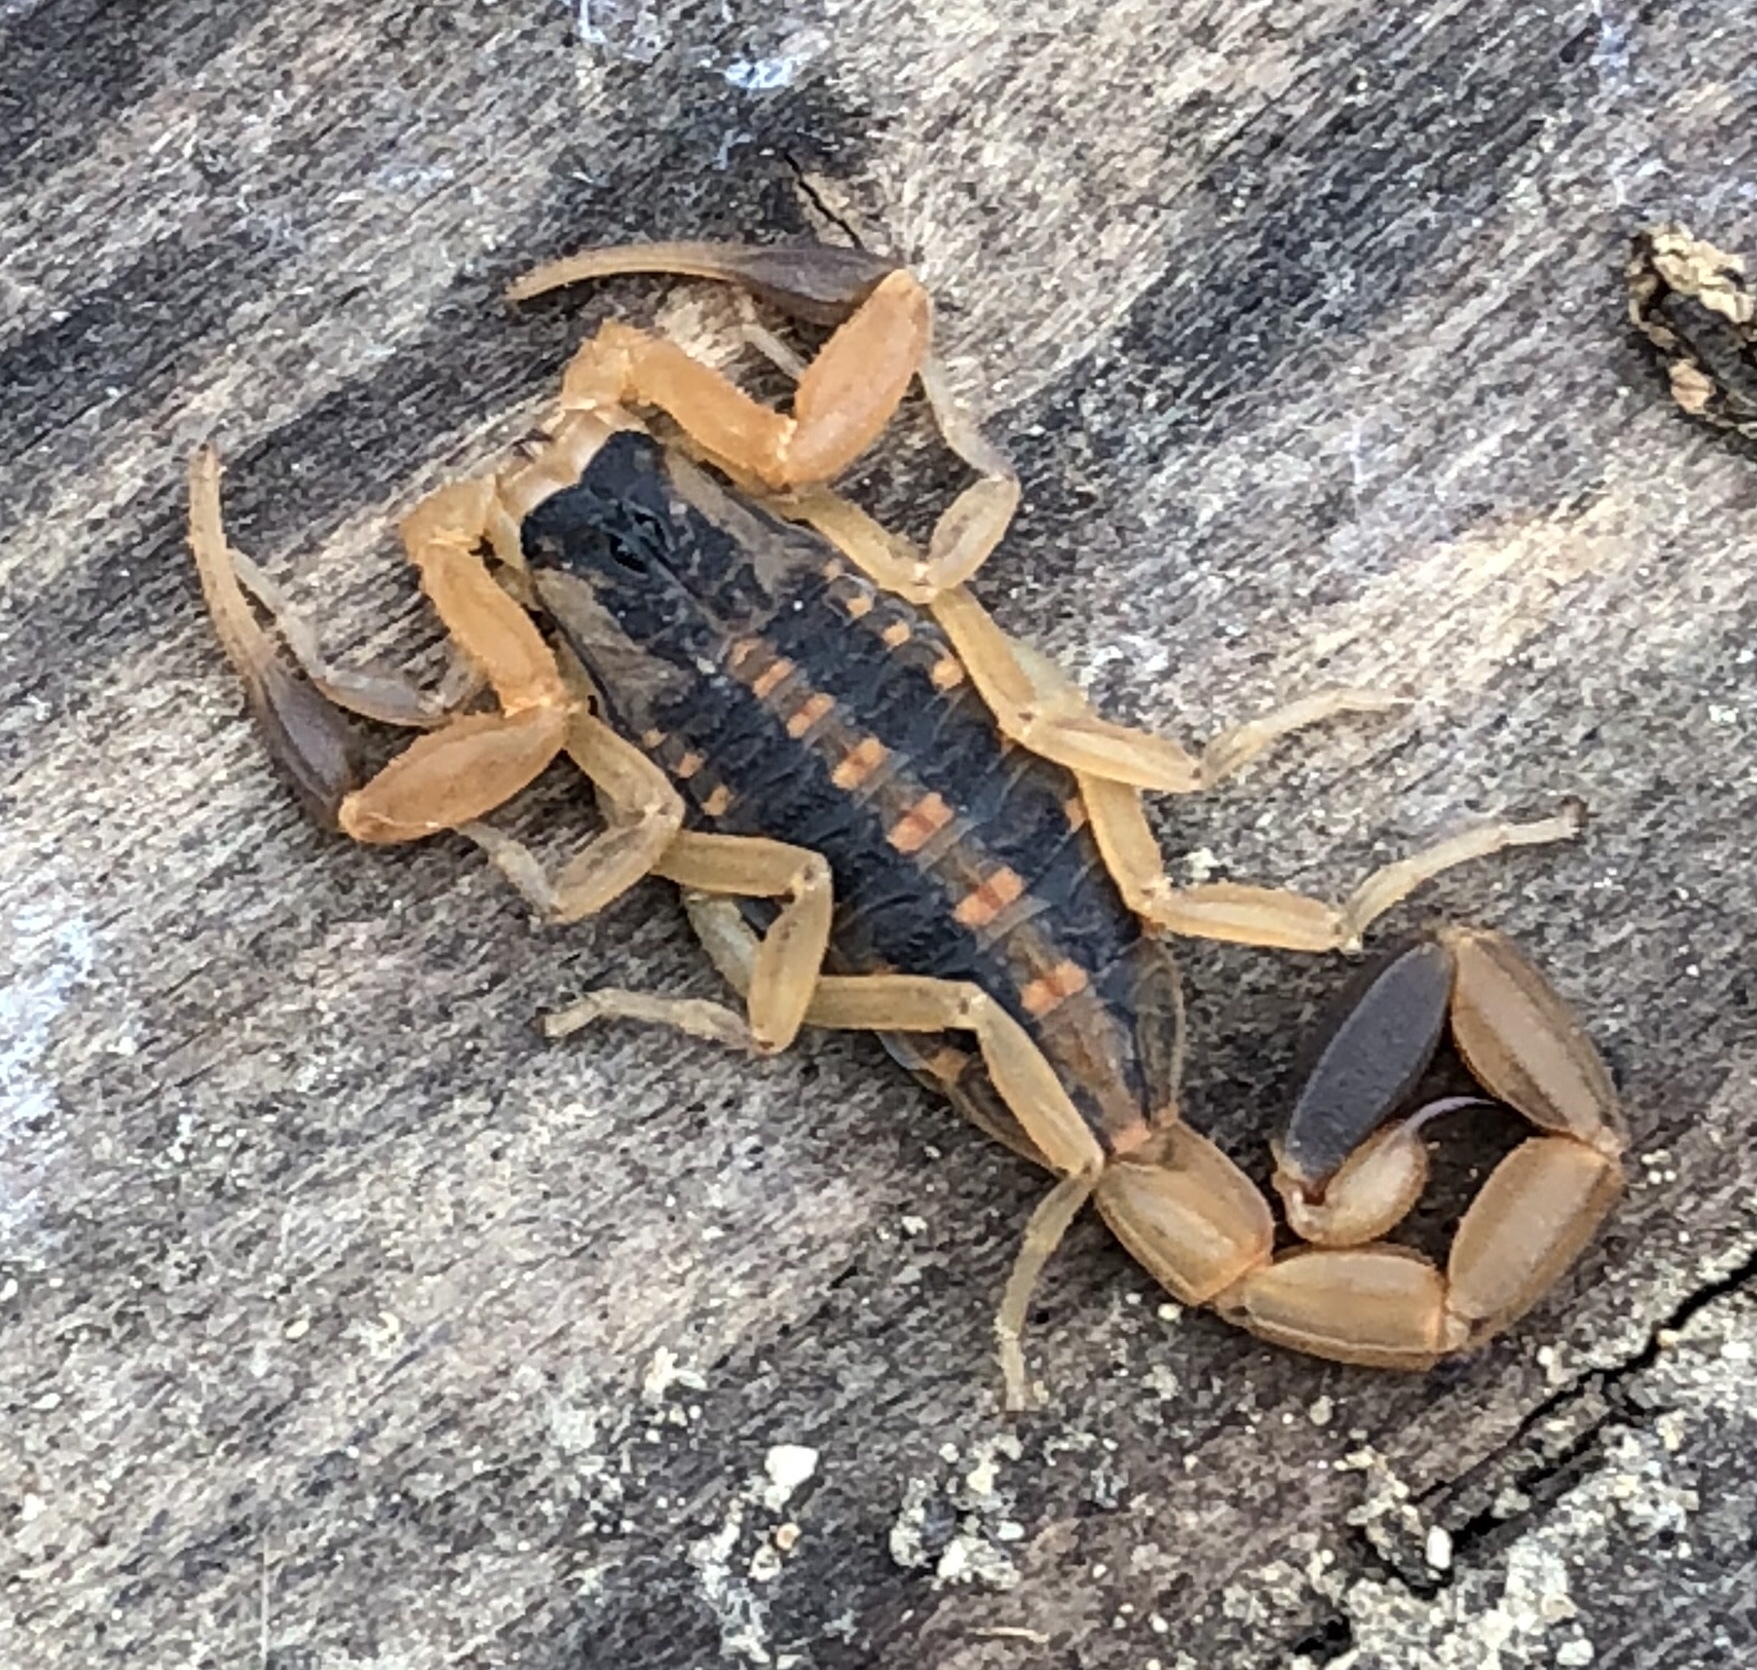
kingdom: Animalia
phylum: Arthropoda
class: Arachnida
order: Scorpiones
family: Buthidae
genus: Centruroides
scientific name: Centruroides vittatus
